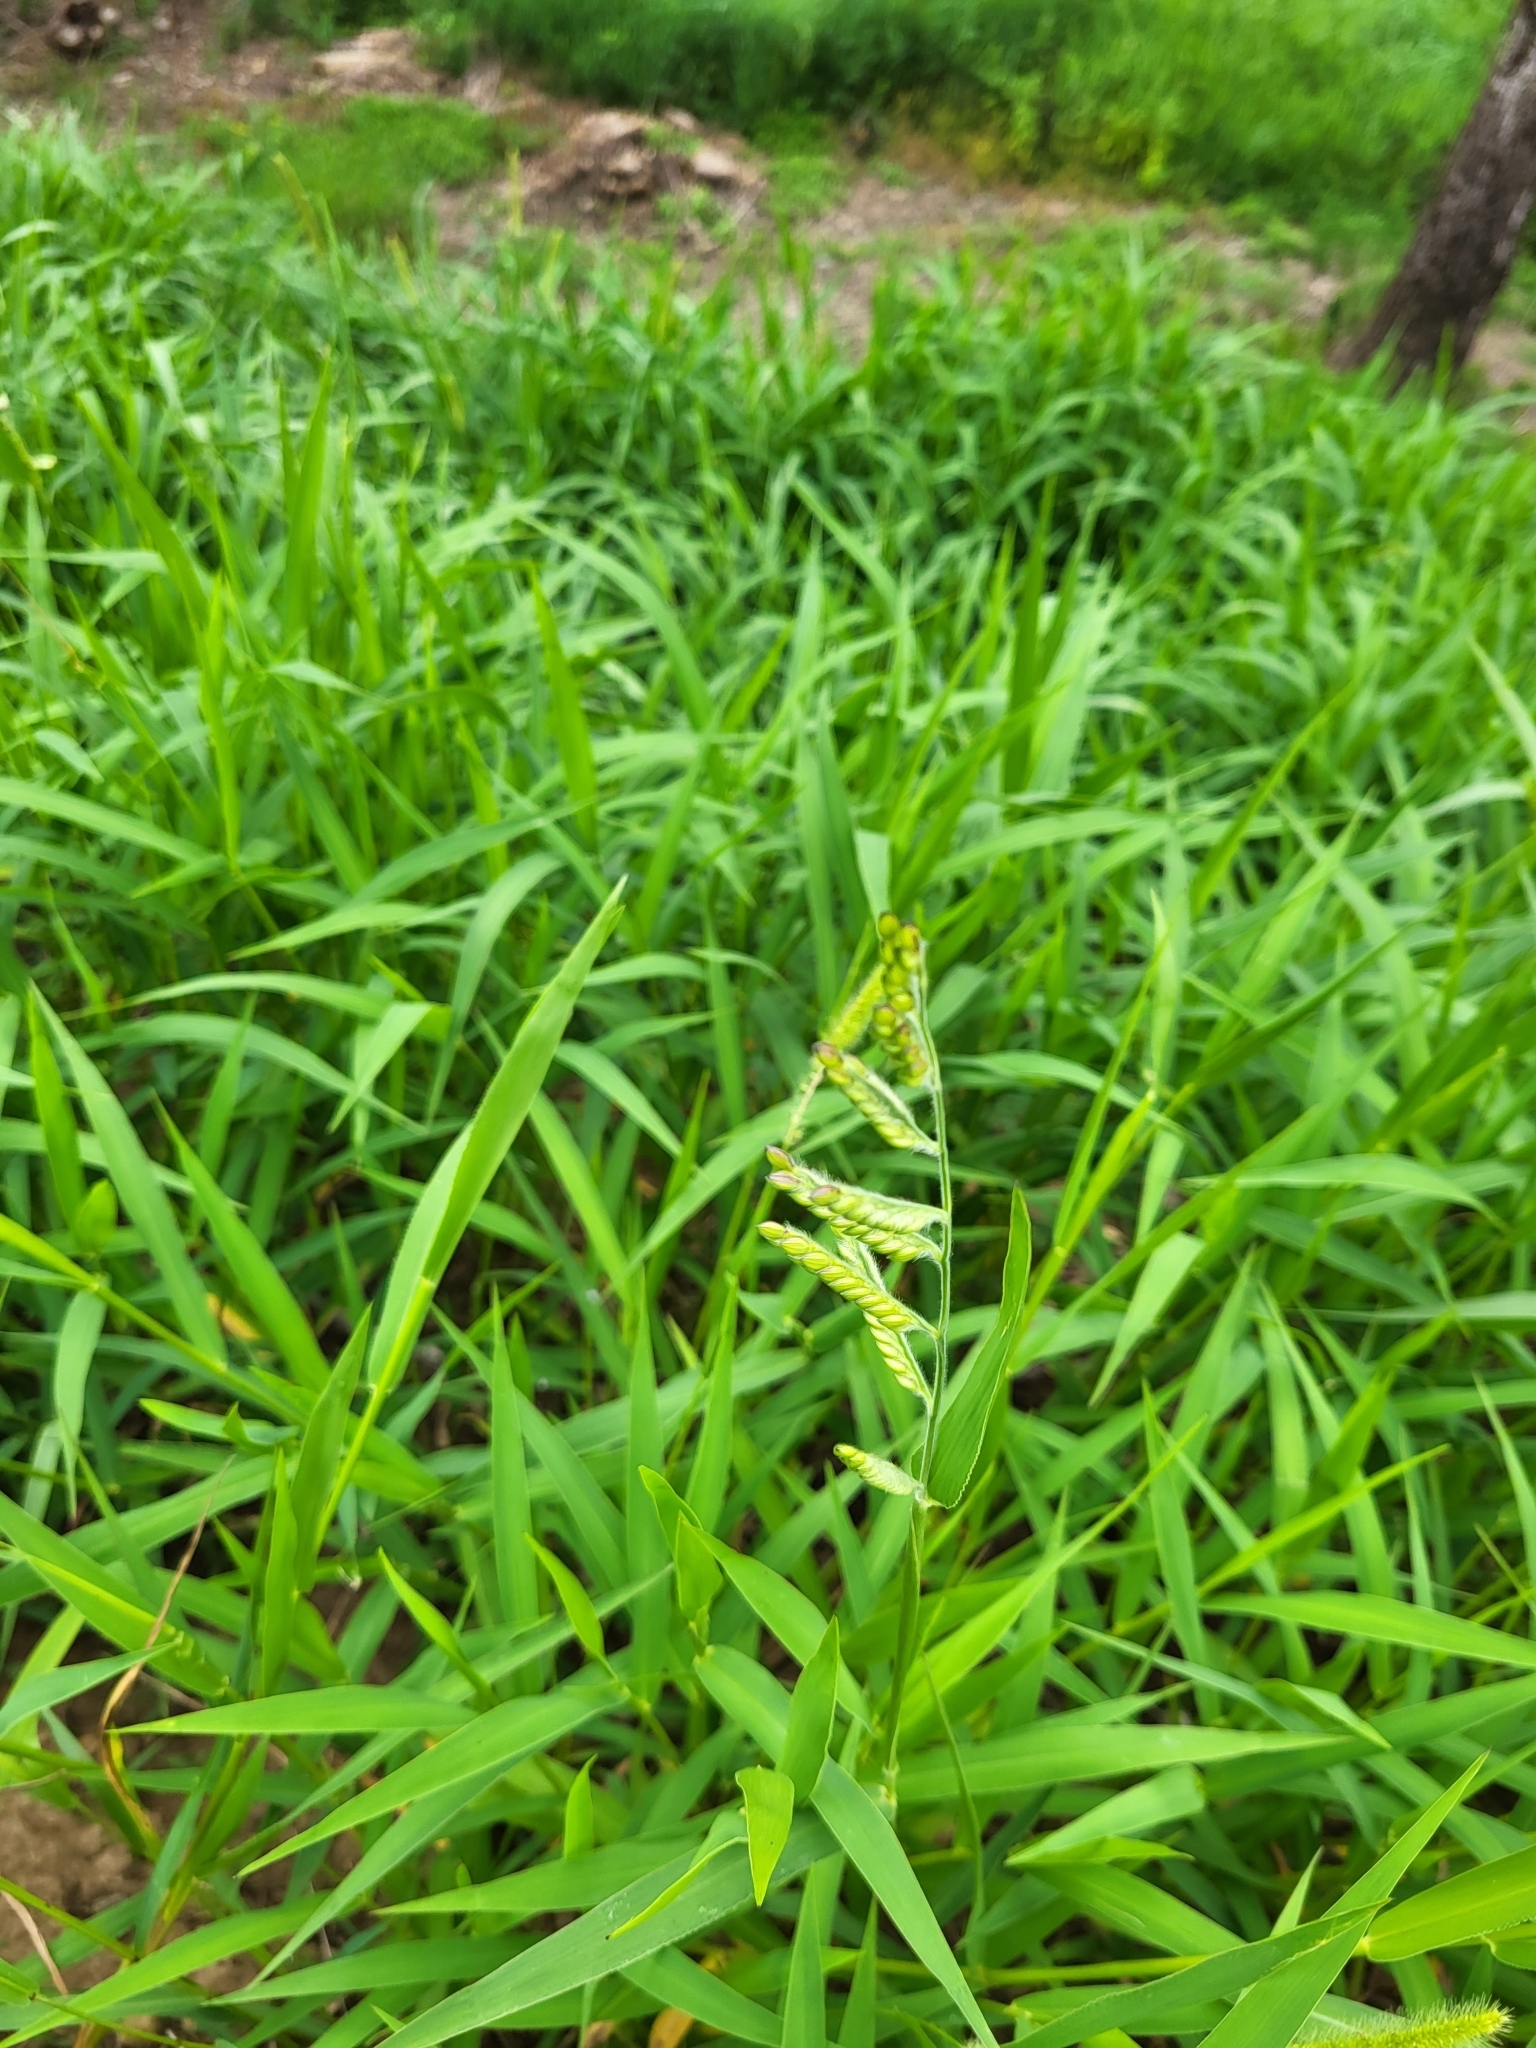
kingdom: Plantae
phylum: Tracheophyta
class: Liliopsida
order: Poales
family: Poaceae
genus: Eriochloa
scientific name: Eriochloa villosa
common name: Hairy cupgrass
